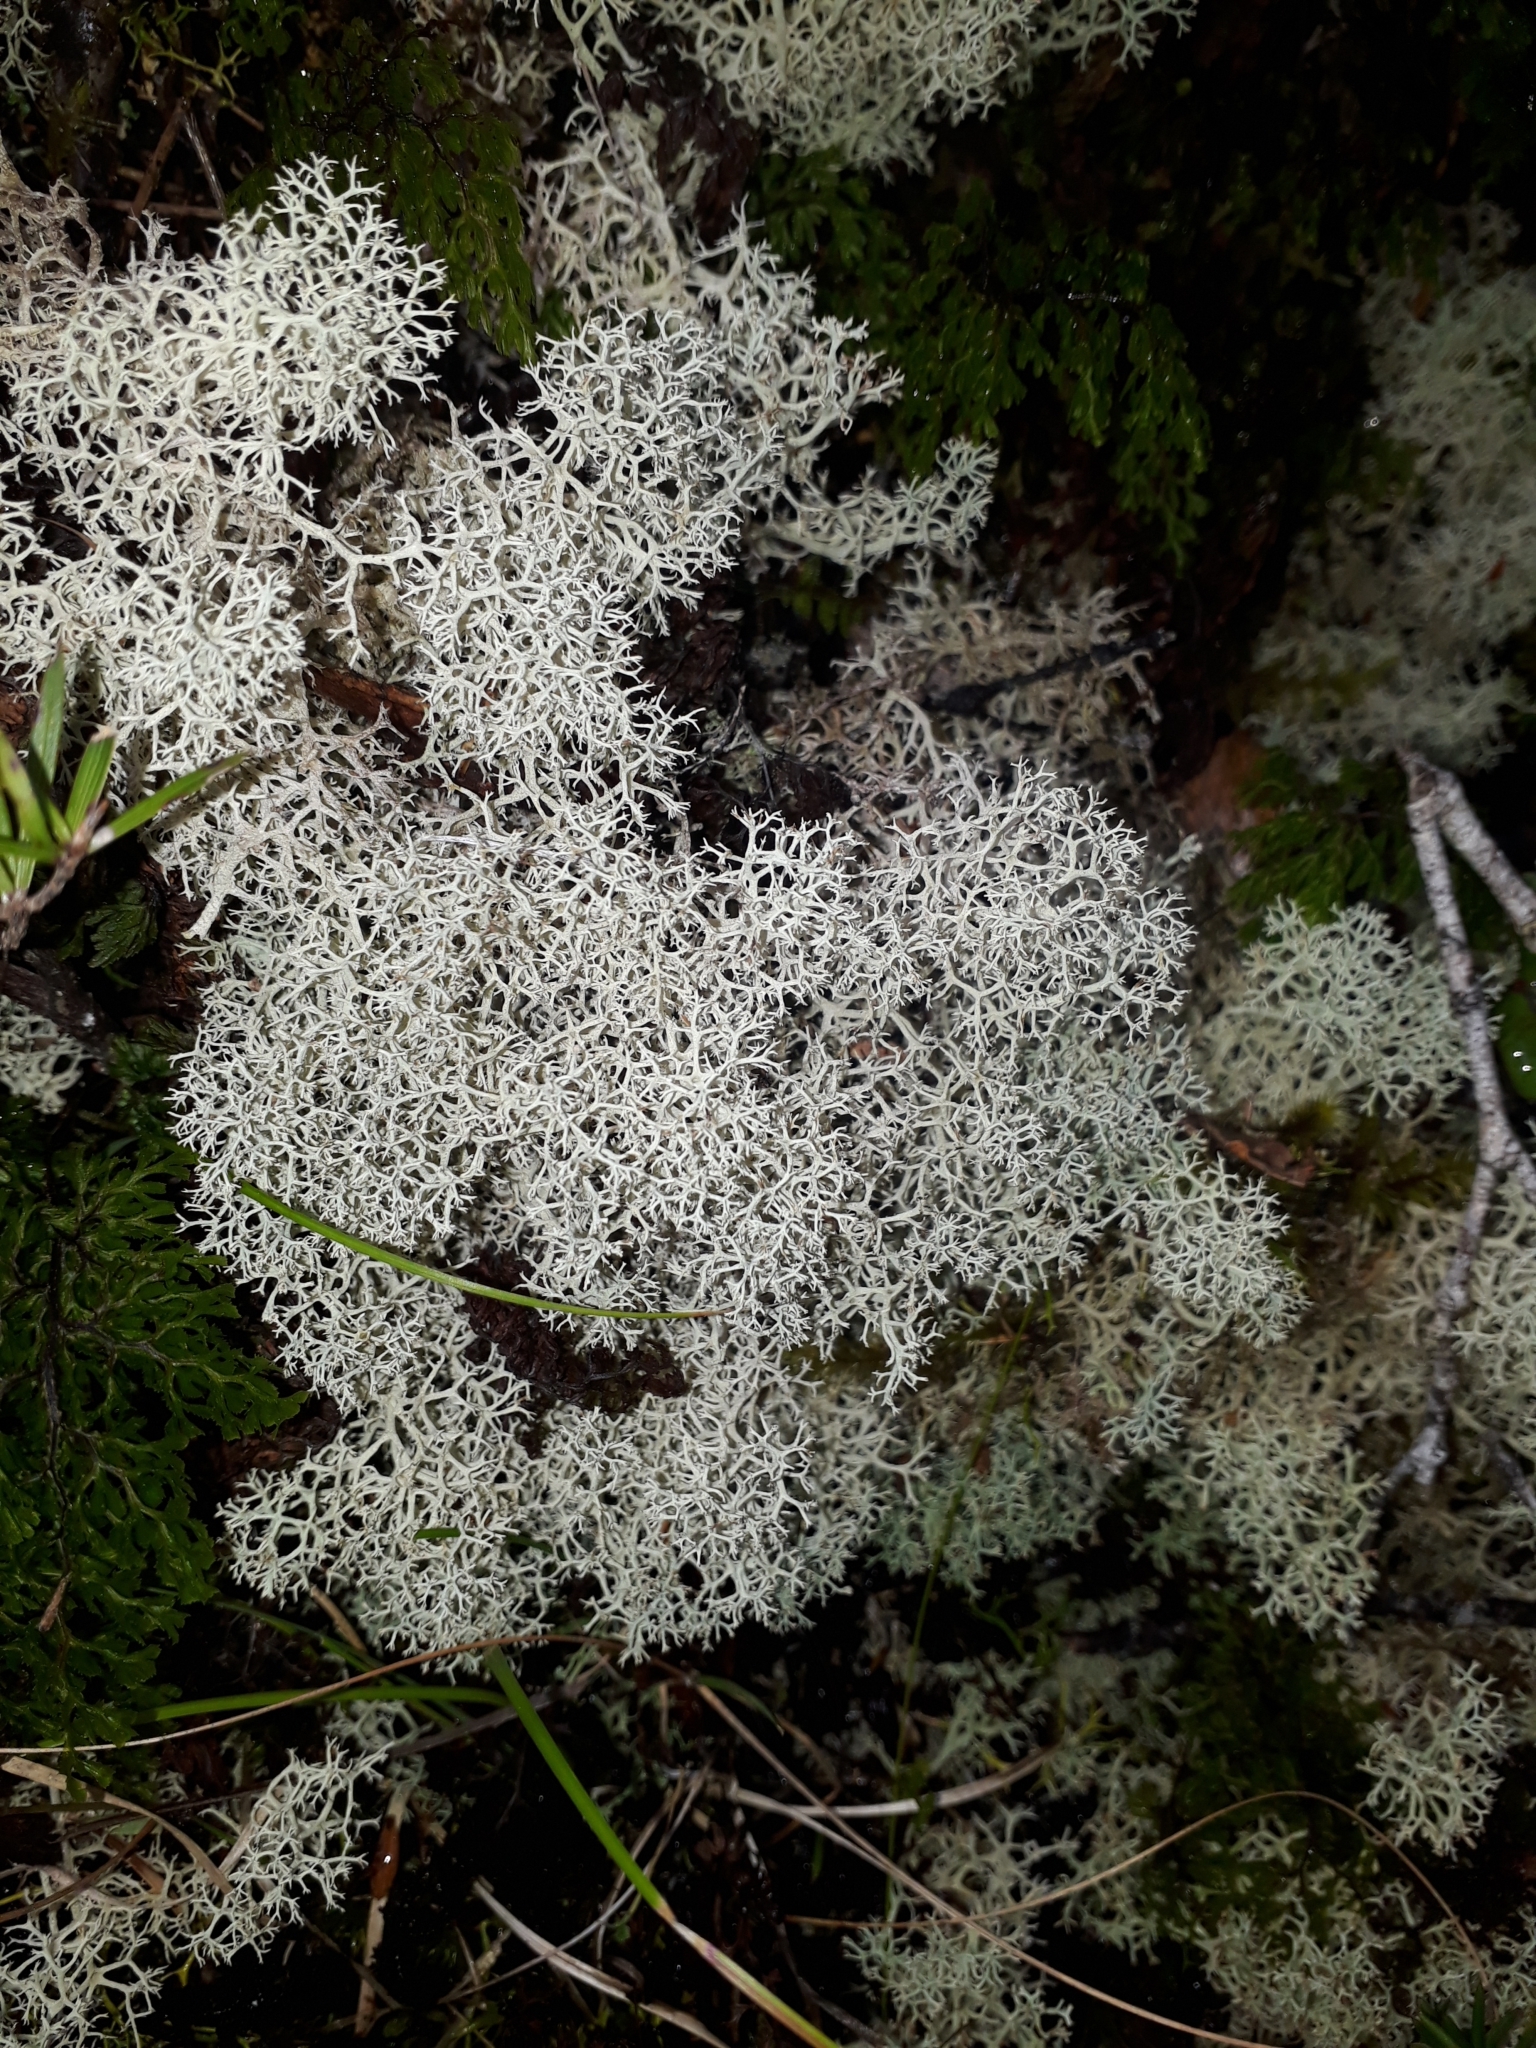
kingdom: Fungi
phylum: Ascomycota
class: Lecanoromycetes
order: Lecanorales
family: Cladoniaceae
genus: Cladonia
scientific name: Cladonia confusa
